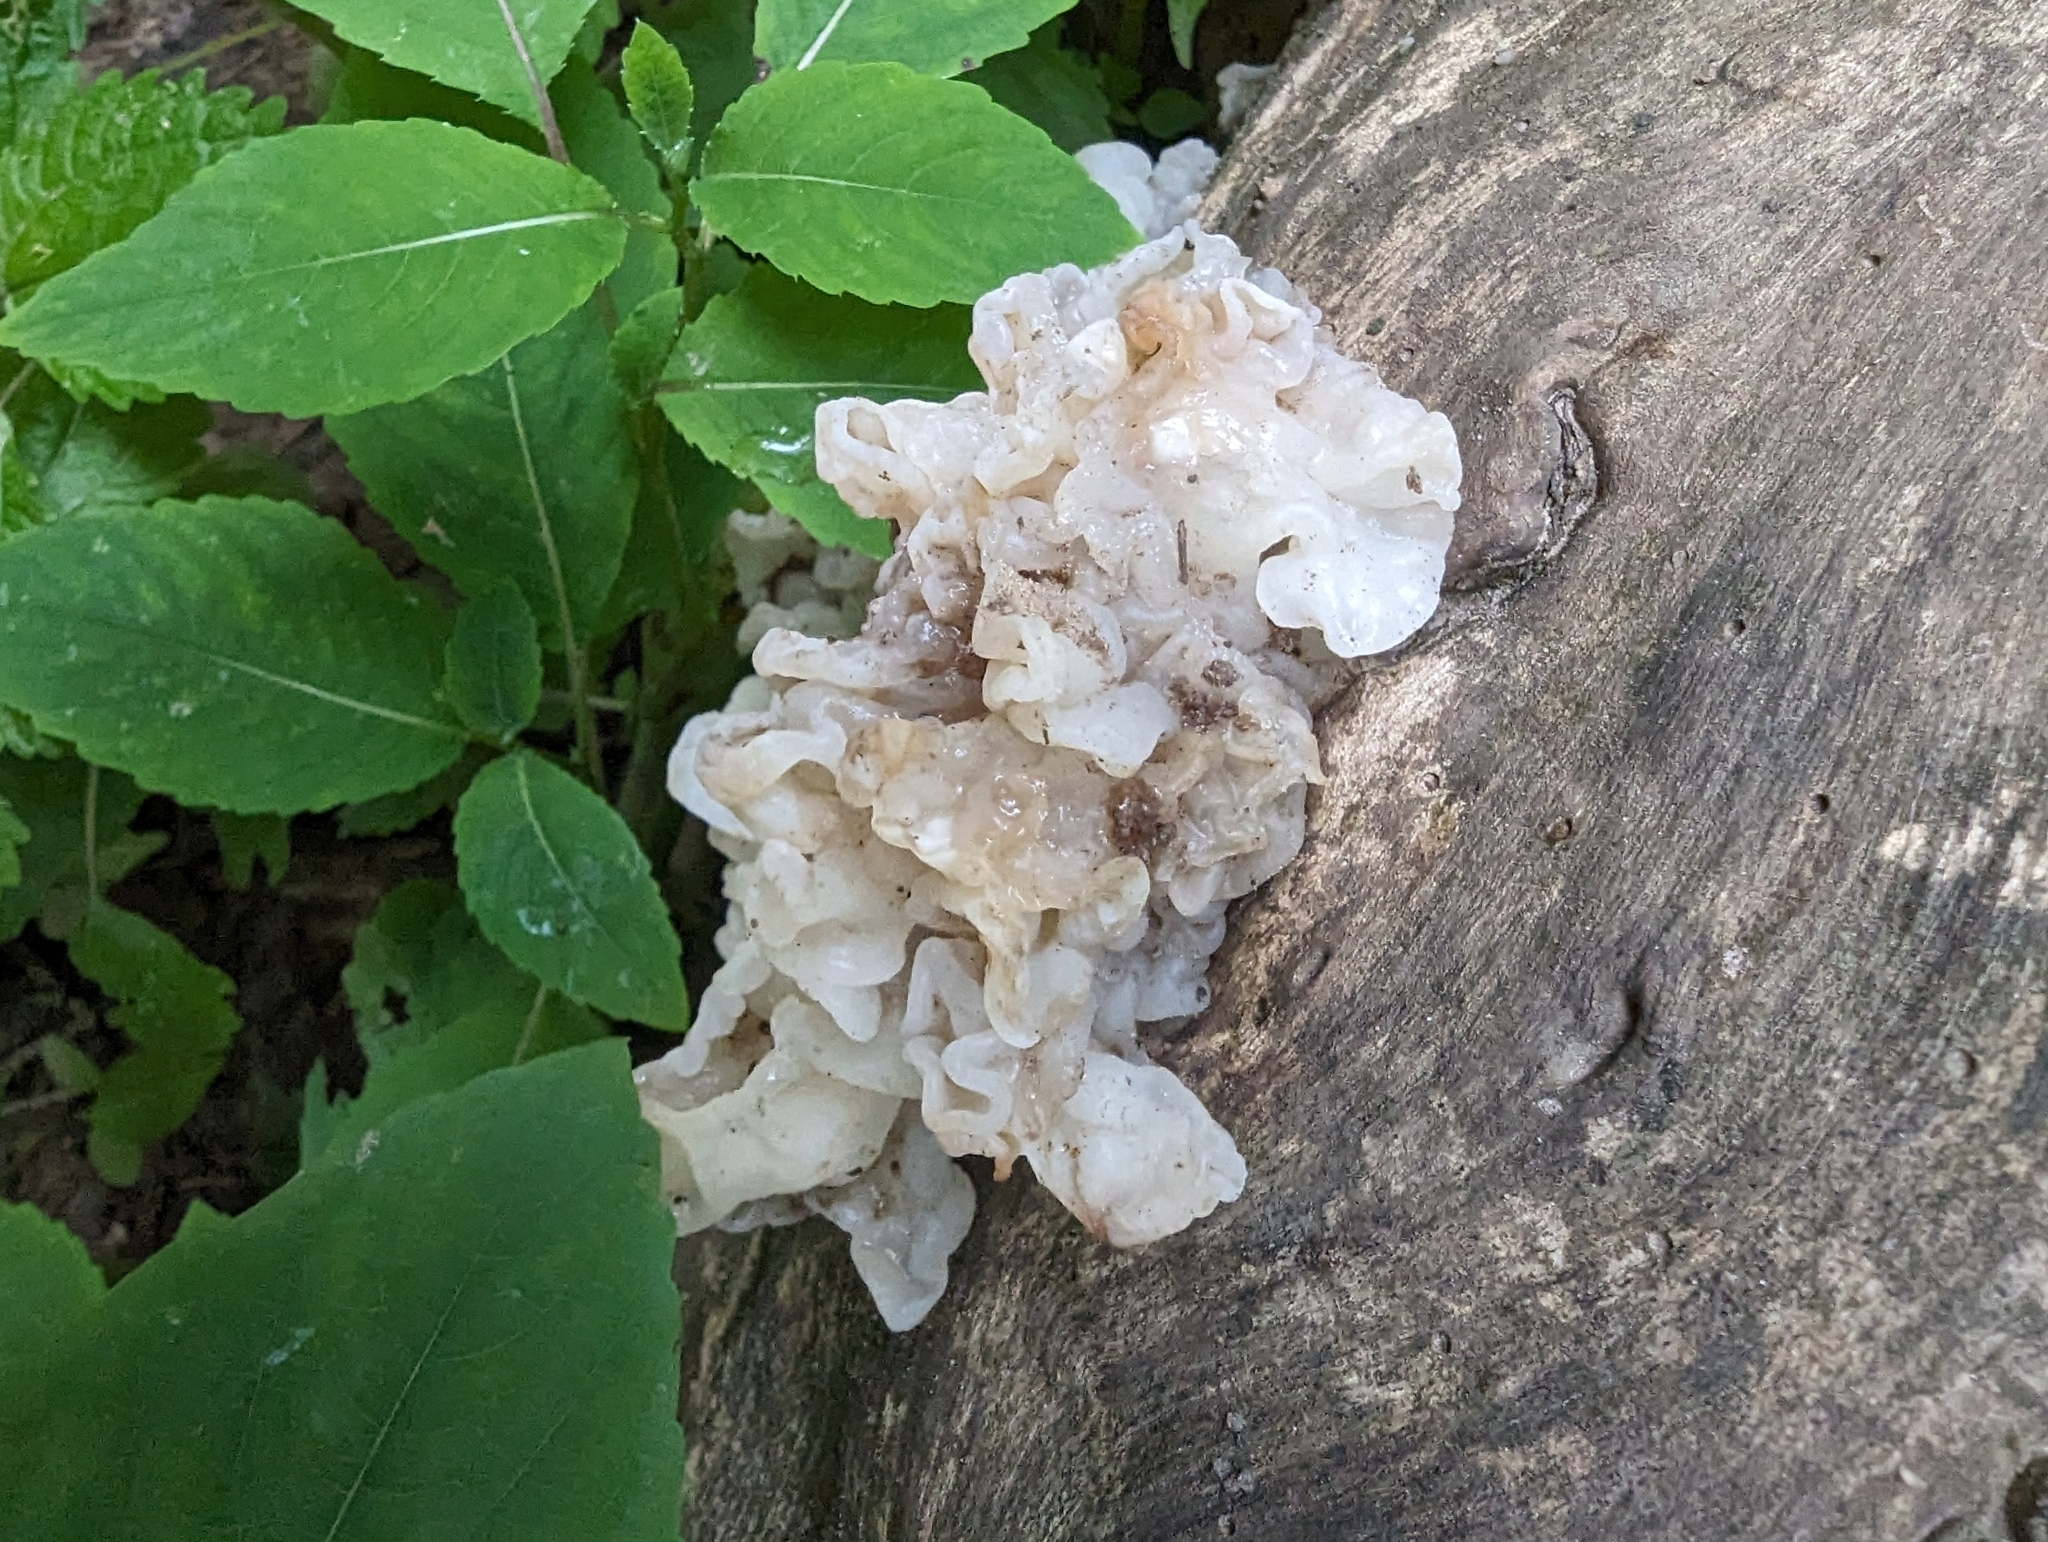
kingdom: Fungi
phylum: Basidiomycota
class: Agaricomycetes
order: Auriculariales
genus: Ductifera
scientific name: Ductifera pululahuana
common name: White jelly fungus
